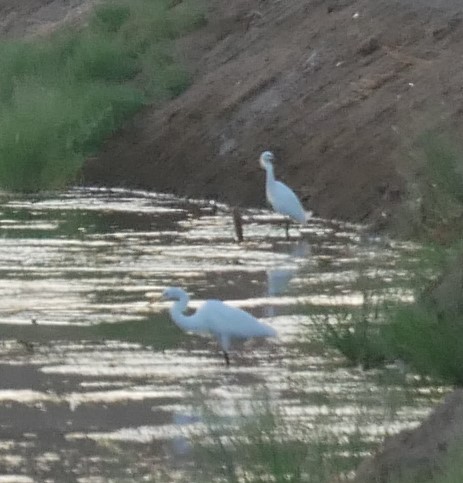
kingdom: Animalia
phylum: Chordata
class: Aves
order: Pelecaniformes
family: Ardeidae
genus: Ardea
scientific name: Ardea alba
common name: Great egret
